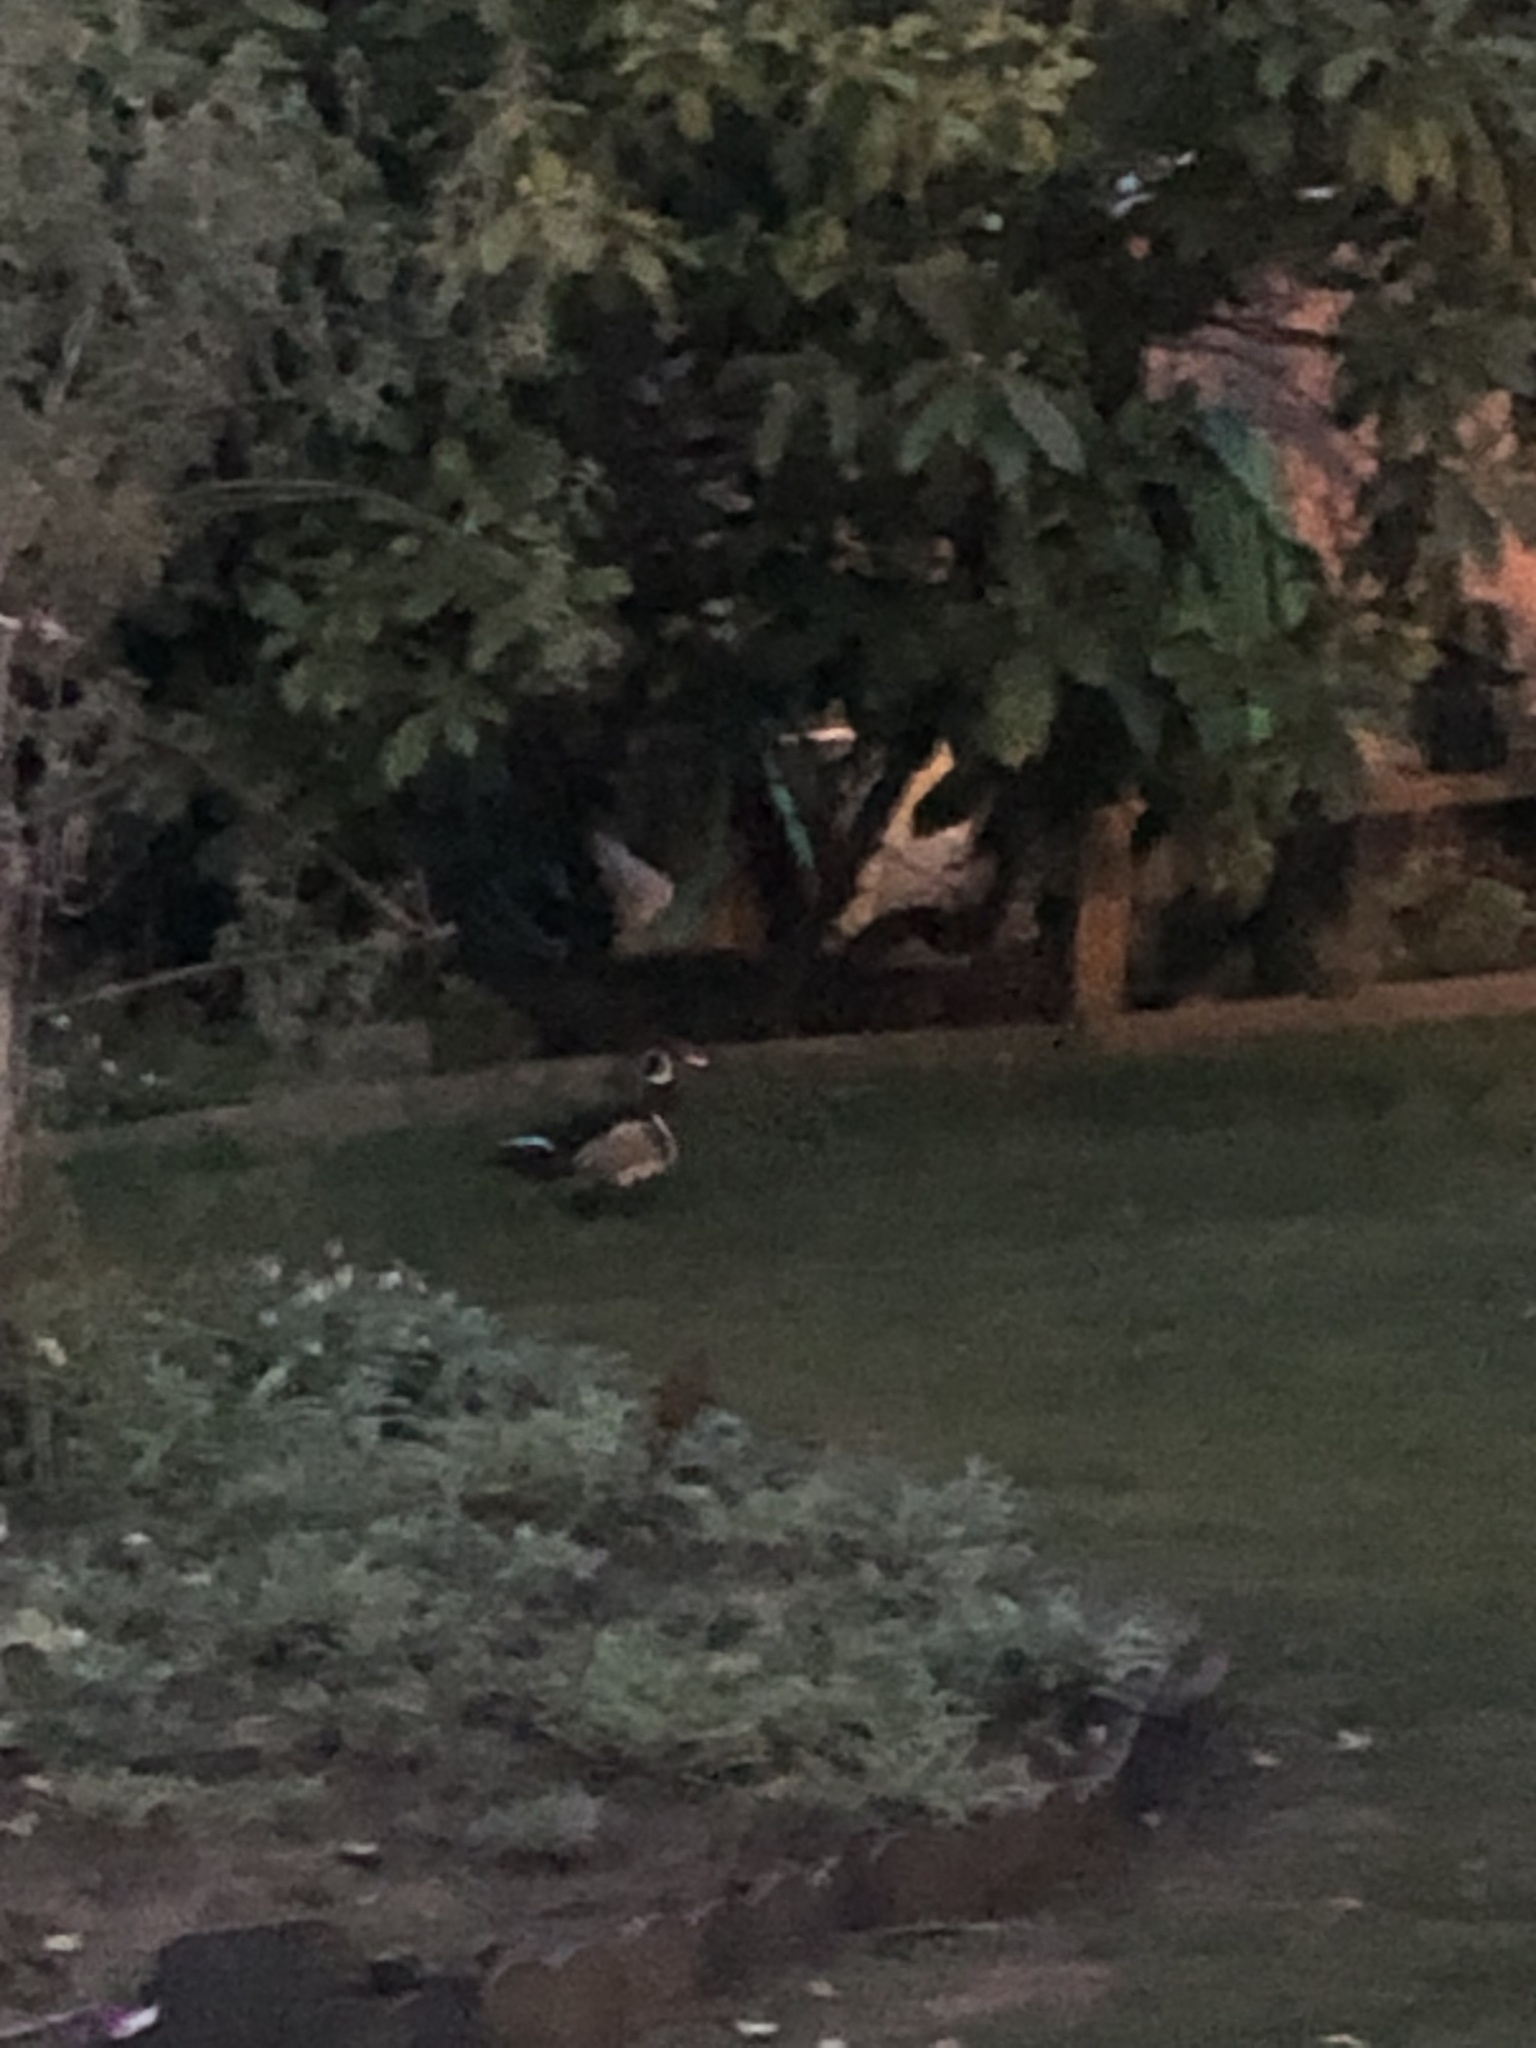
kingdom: Animalia
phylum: Chordata
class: Aves
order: Anseriformes
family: Anatidae
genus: Aix
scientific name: Aix sponsa
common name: Wood duck
